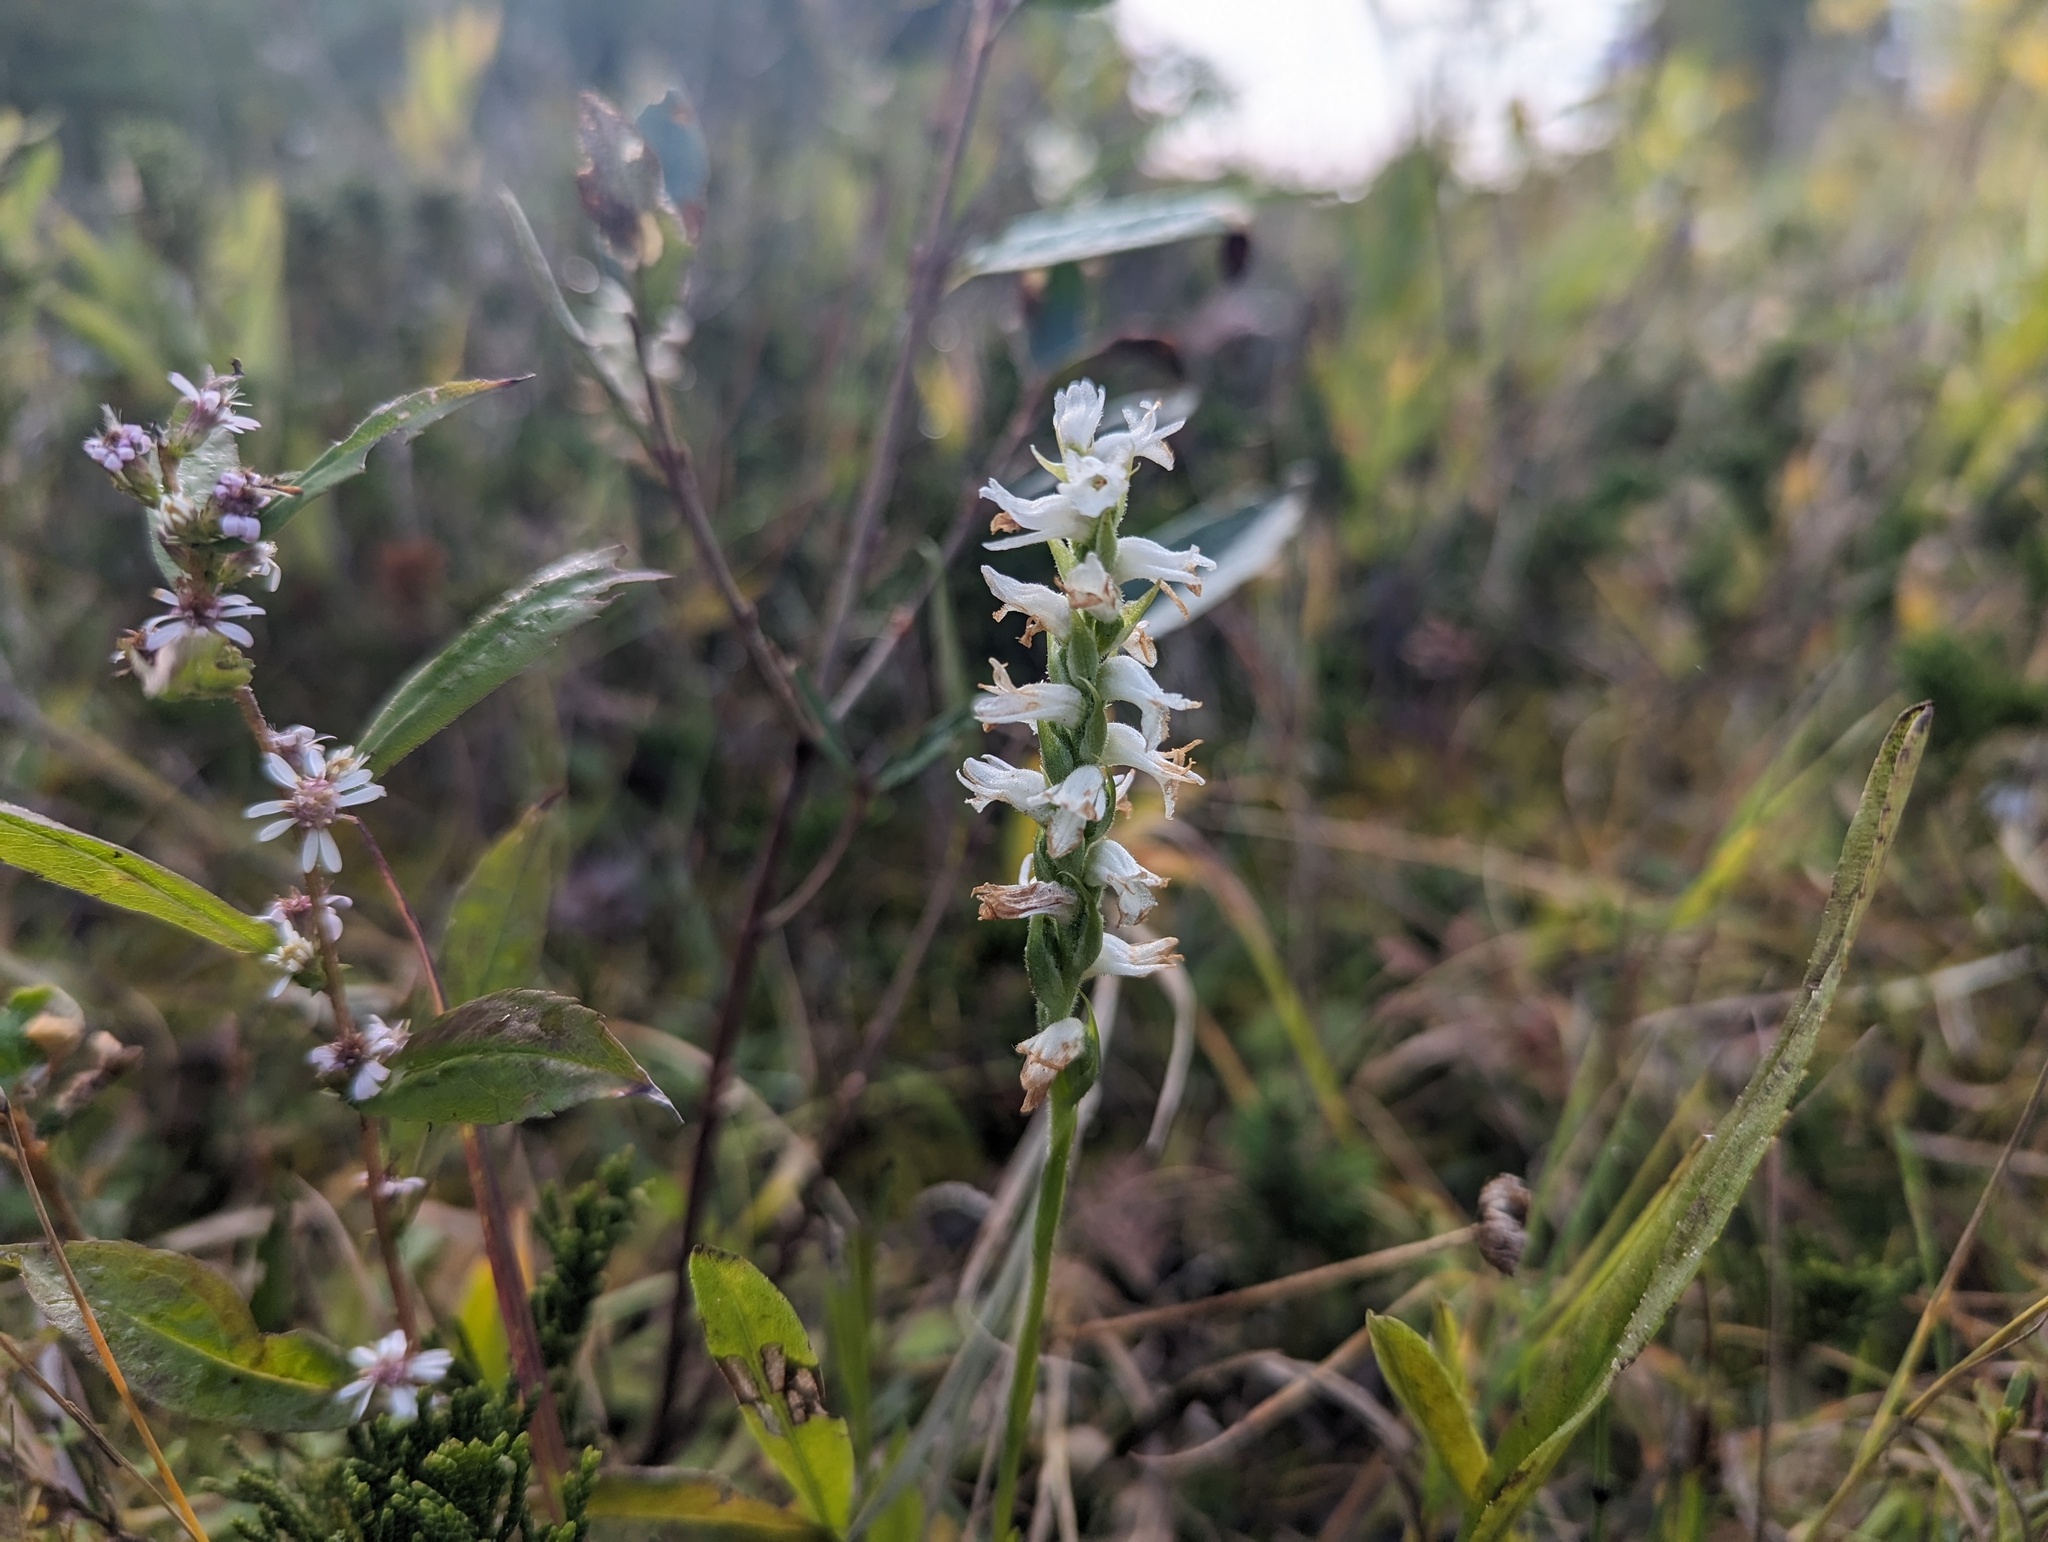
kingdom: Plantae
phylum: Tracheophyta
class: Liliopsida
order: Asparagales
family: Orchidaceae
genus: Spiranthes
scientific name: Spiranthes incurva
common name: Sphinx ladies'-tresses
